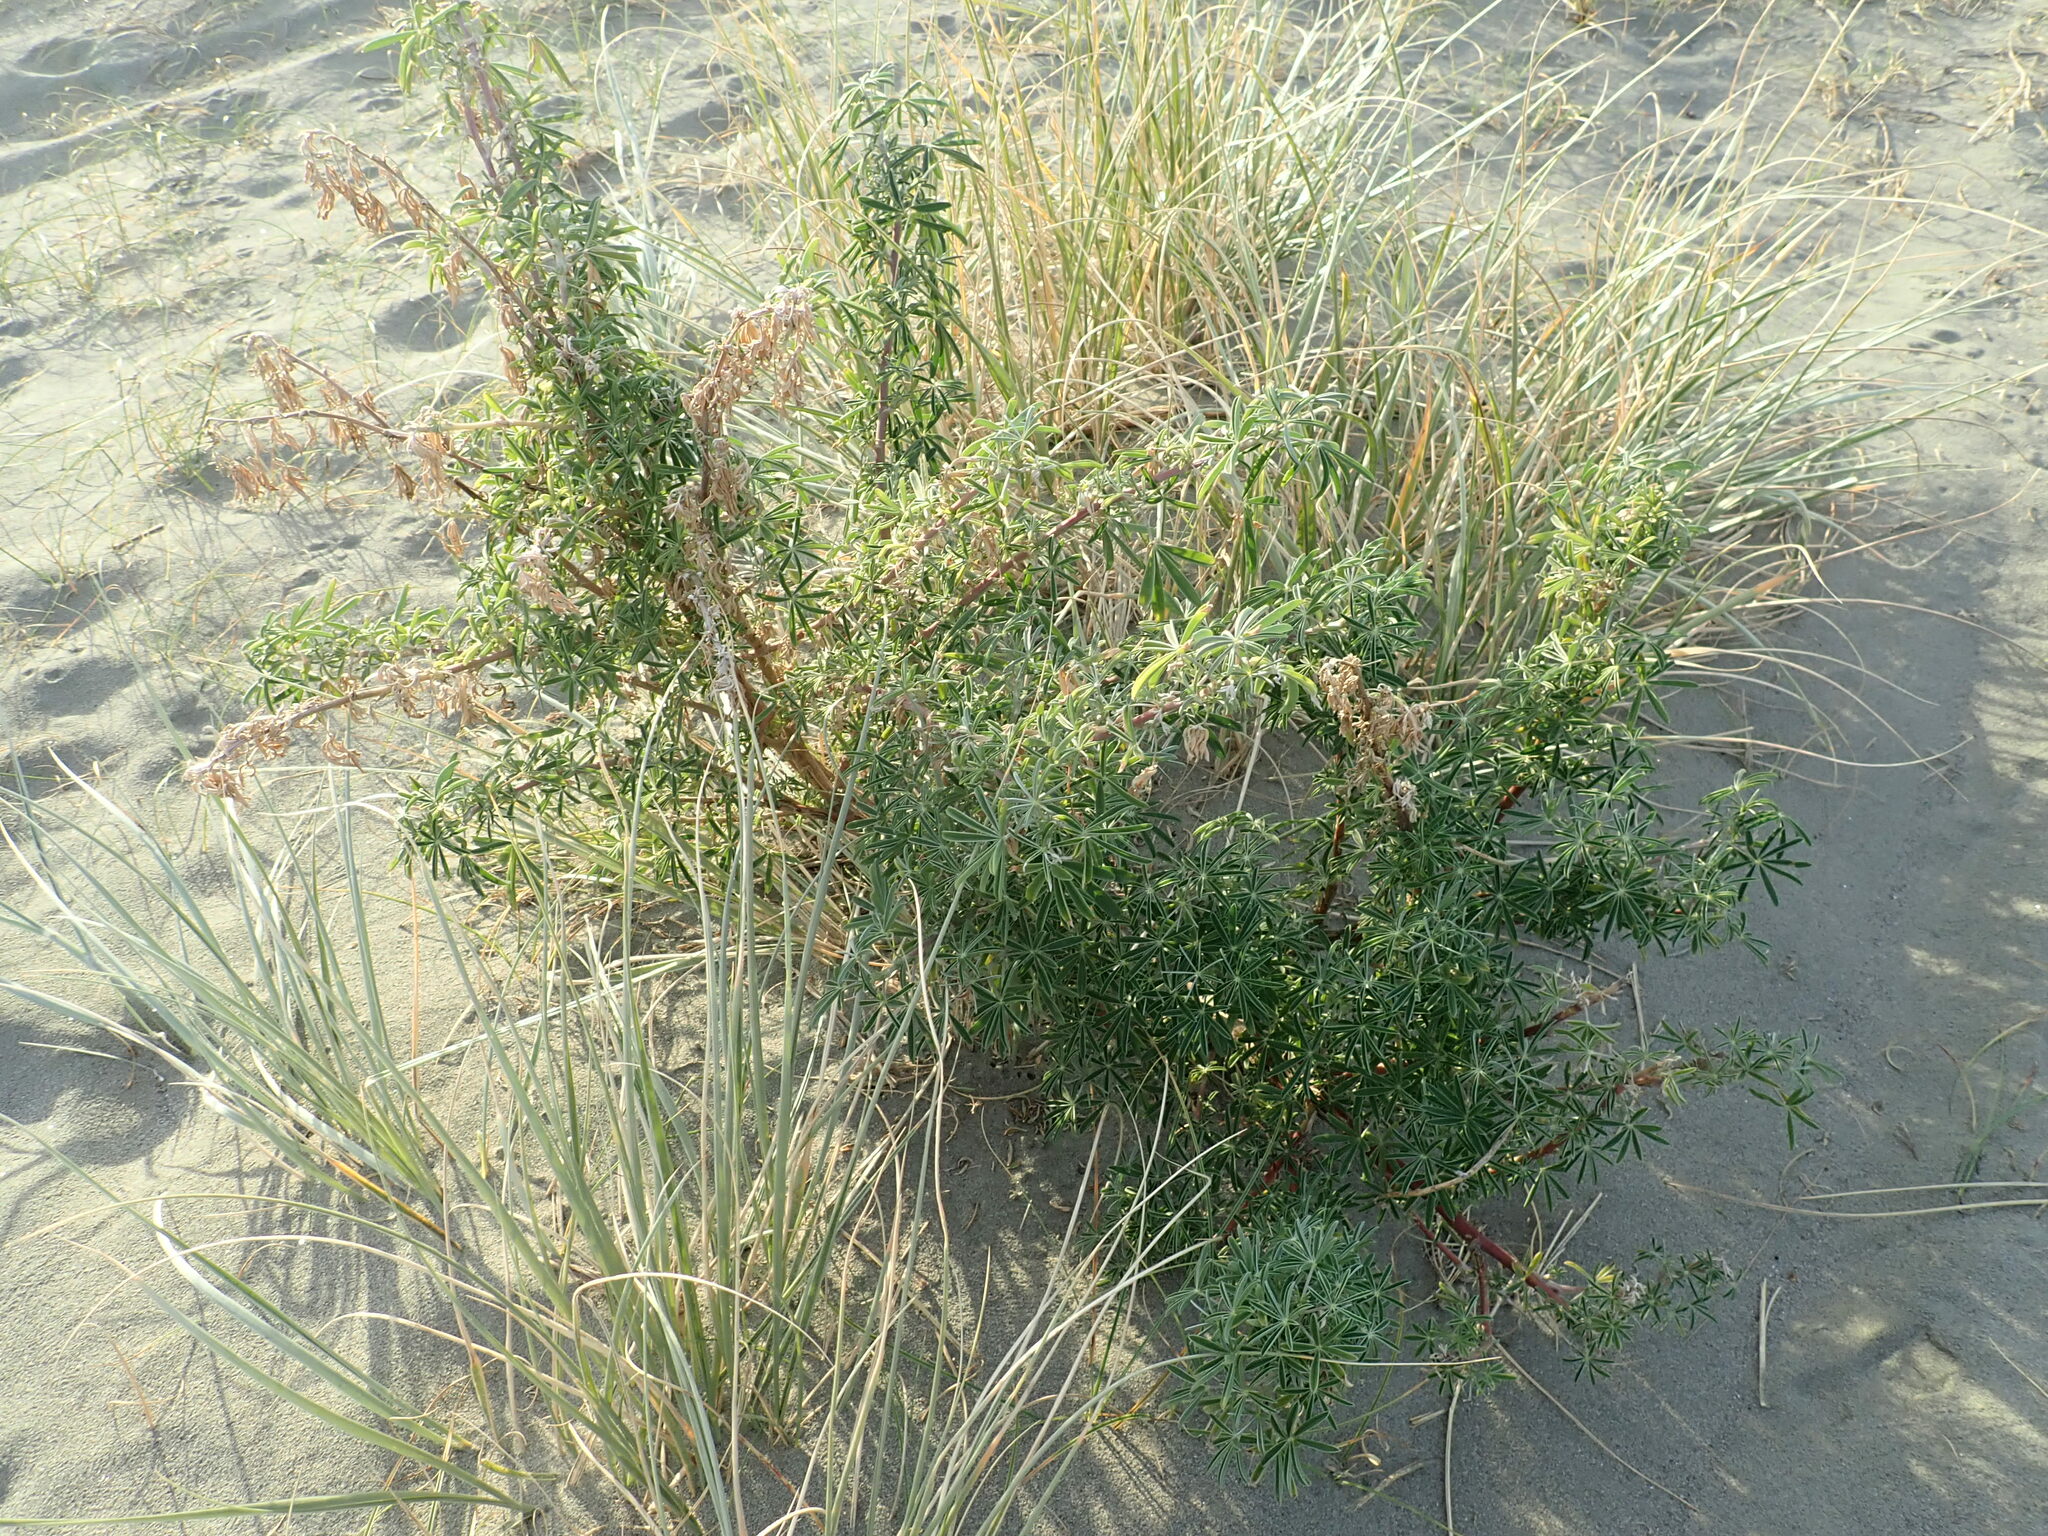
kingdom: Plantae
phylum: Tracheophyta
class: Magnoliopsida
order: Fabales
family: Fabaceae
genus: Lupinus
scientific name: Lupinus arboreus
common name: Yellow bush lupine
